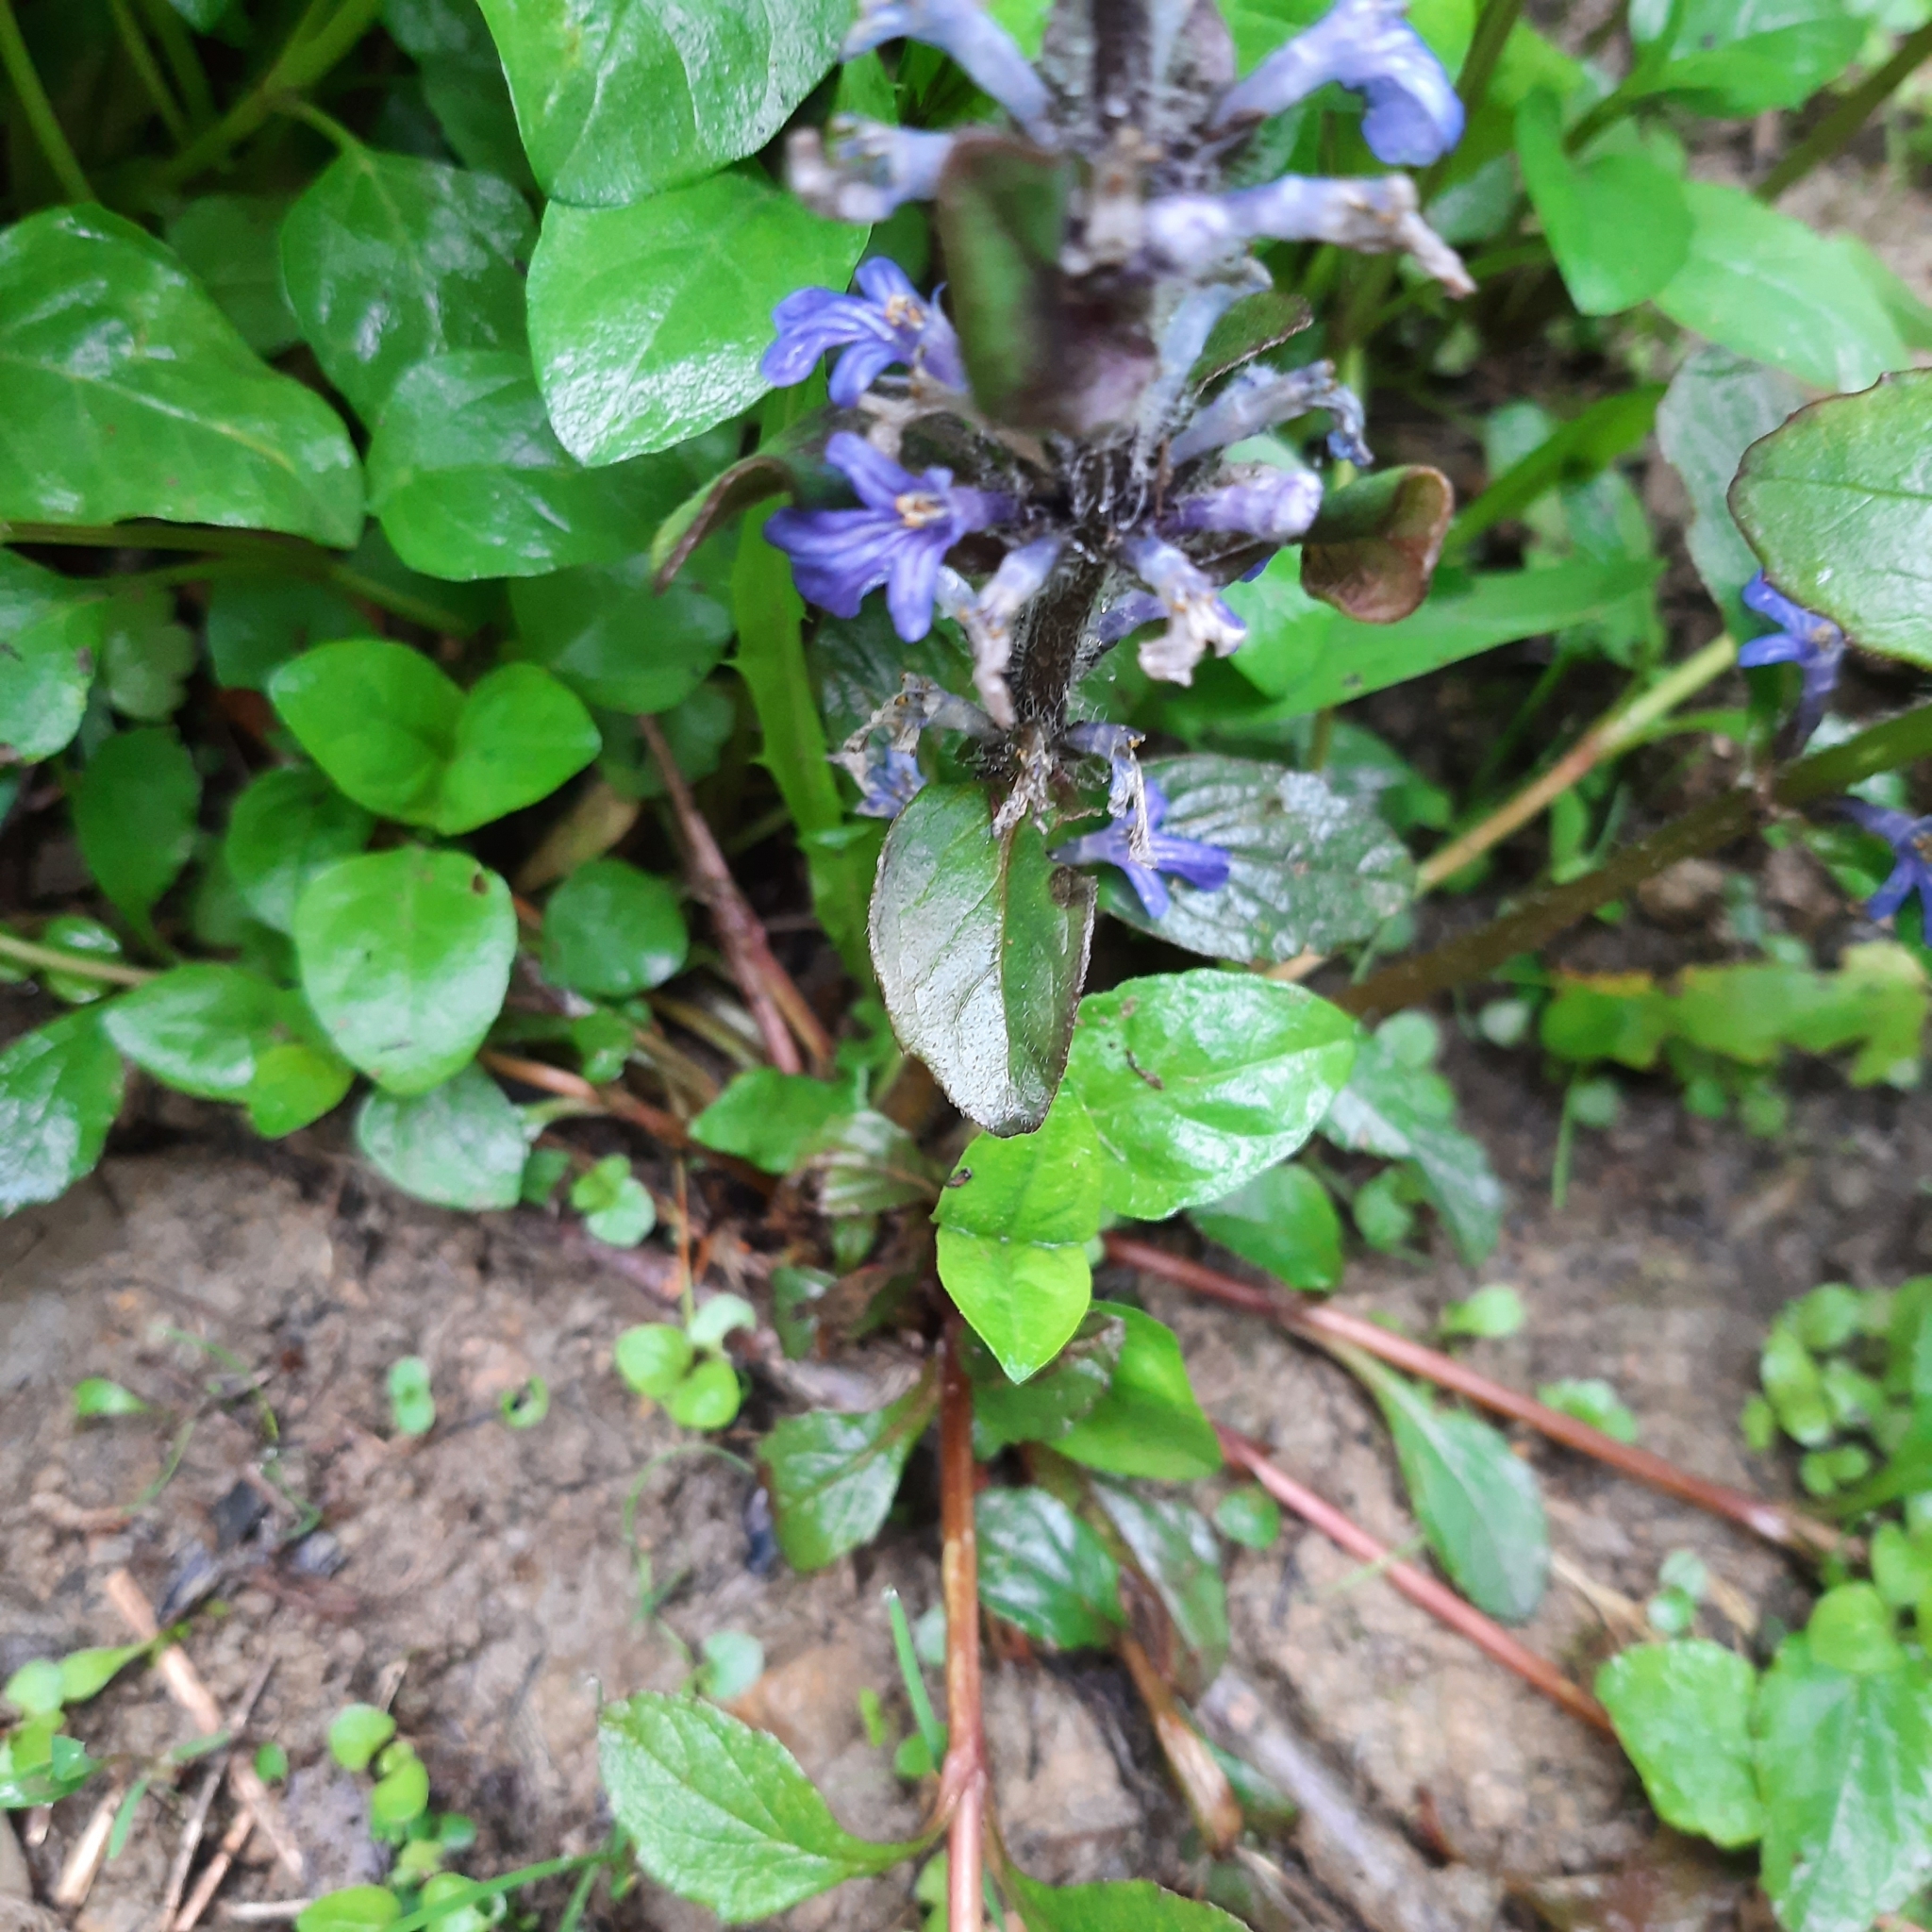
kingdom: Plantae
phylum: Tracheophyta
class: Magnoliopsida
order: Lamiales
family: Lamiaceae
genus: Ajuga
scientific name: Ajuga reptans
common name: Bugle
